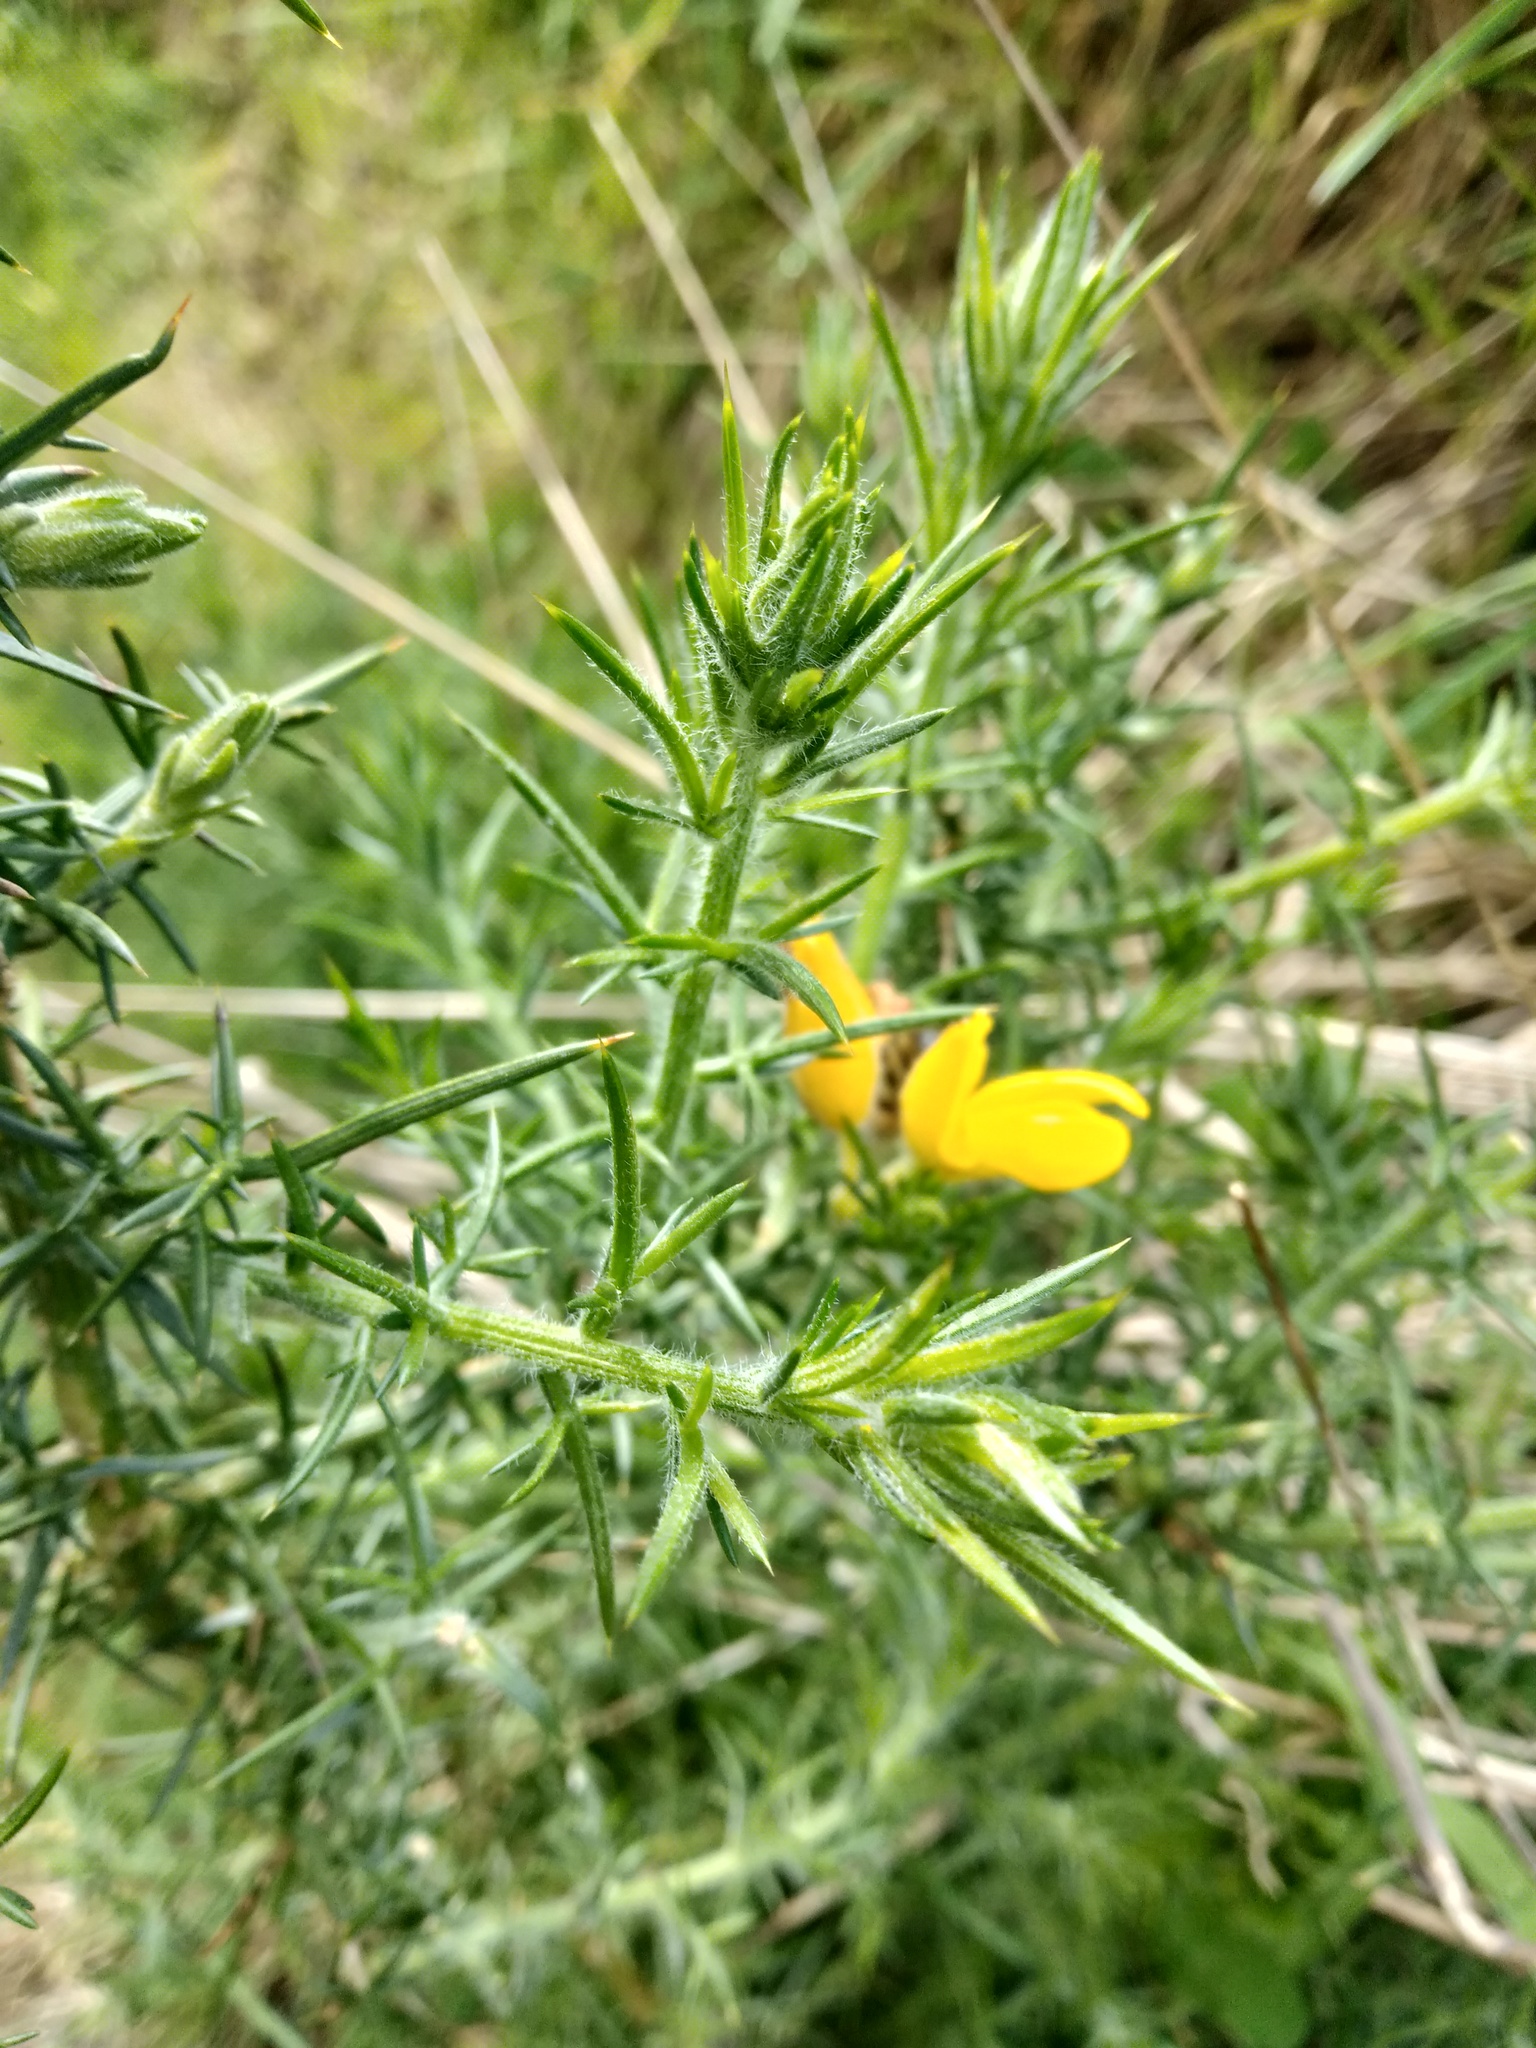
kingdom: Plantae
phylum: Tracheophyta
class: Magnoliopsida
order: Fabales
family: Fabaceae
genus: Ulex
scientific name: Ulex europaeus
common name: Common gorse
